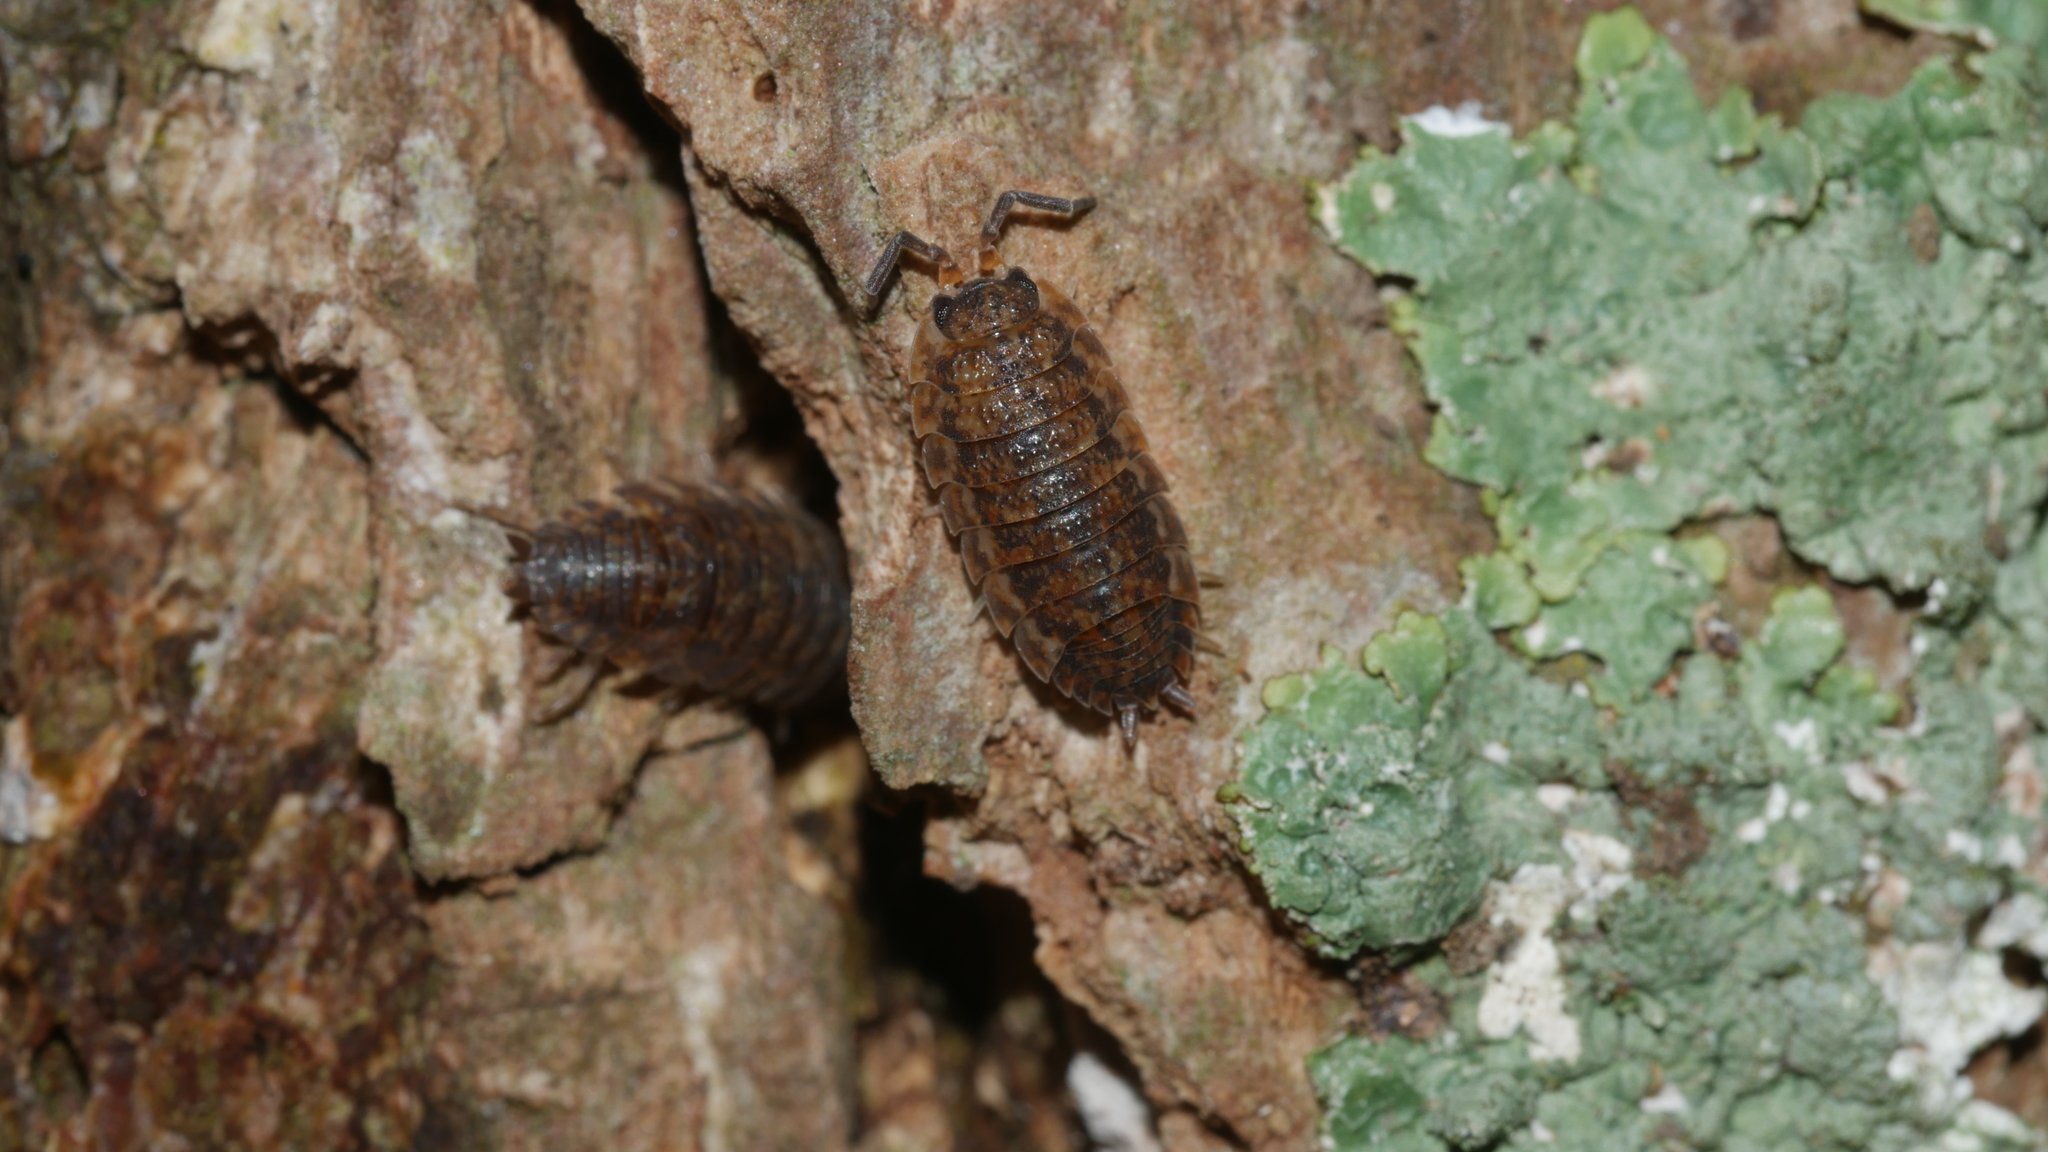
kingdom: Animalia
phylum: Arthropoda
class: Malacostraca
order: Isopoda
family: Porcellionidae
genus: Porcellio
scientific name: Porcellio scaber
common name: Common rough woodlouse
